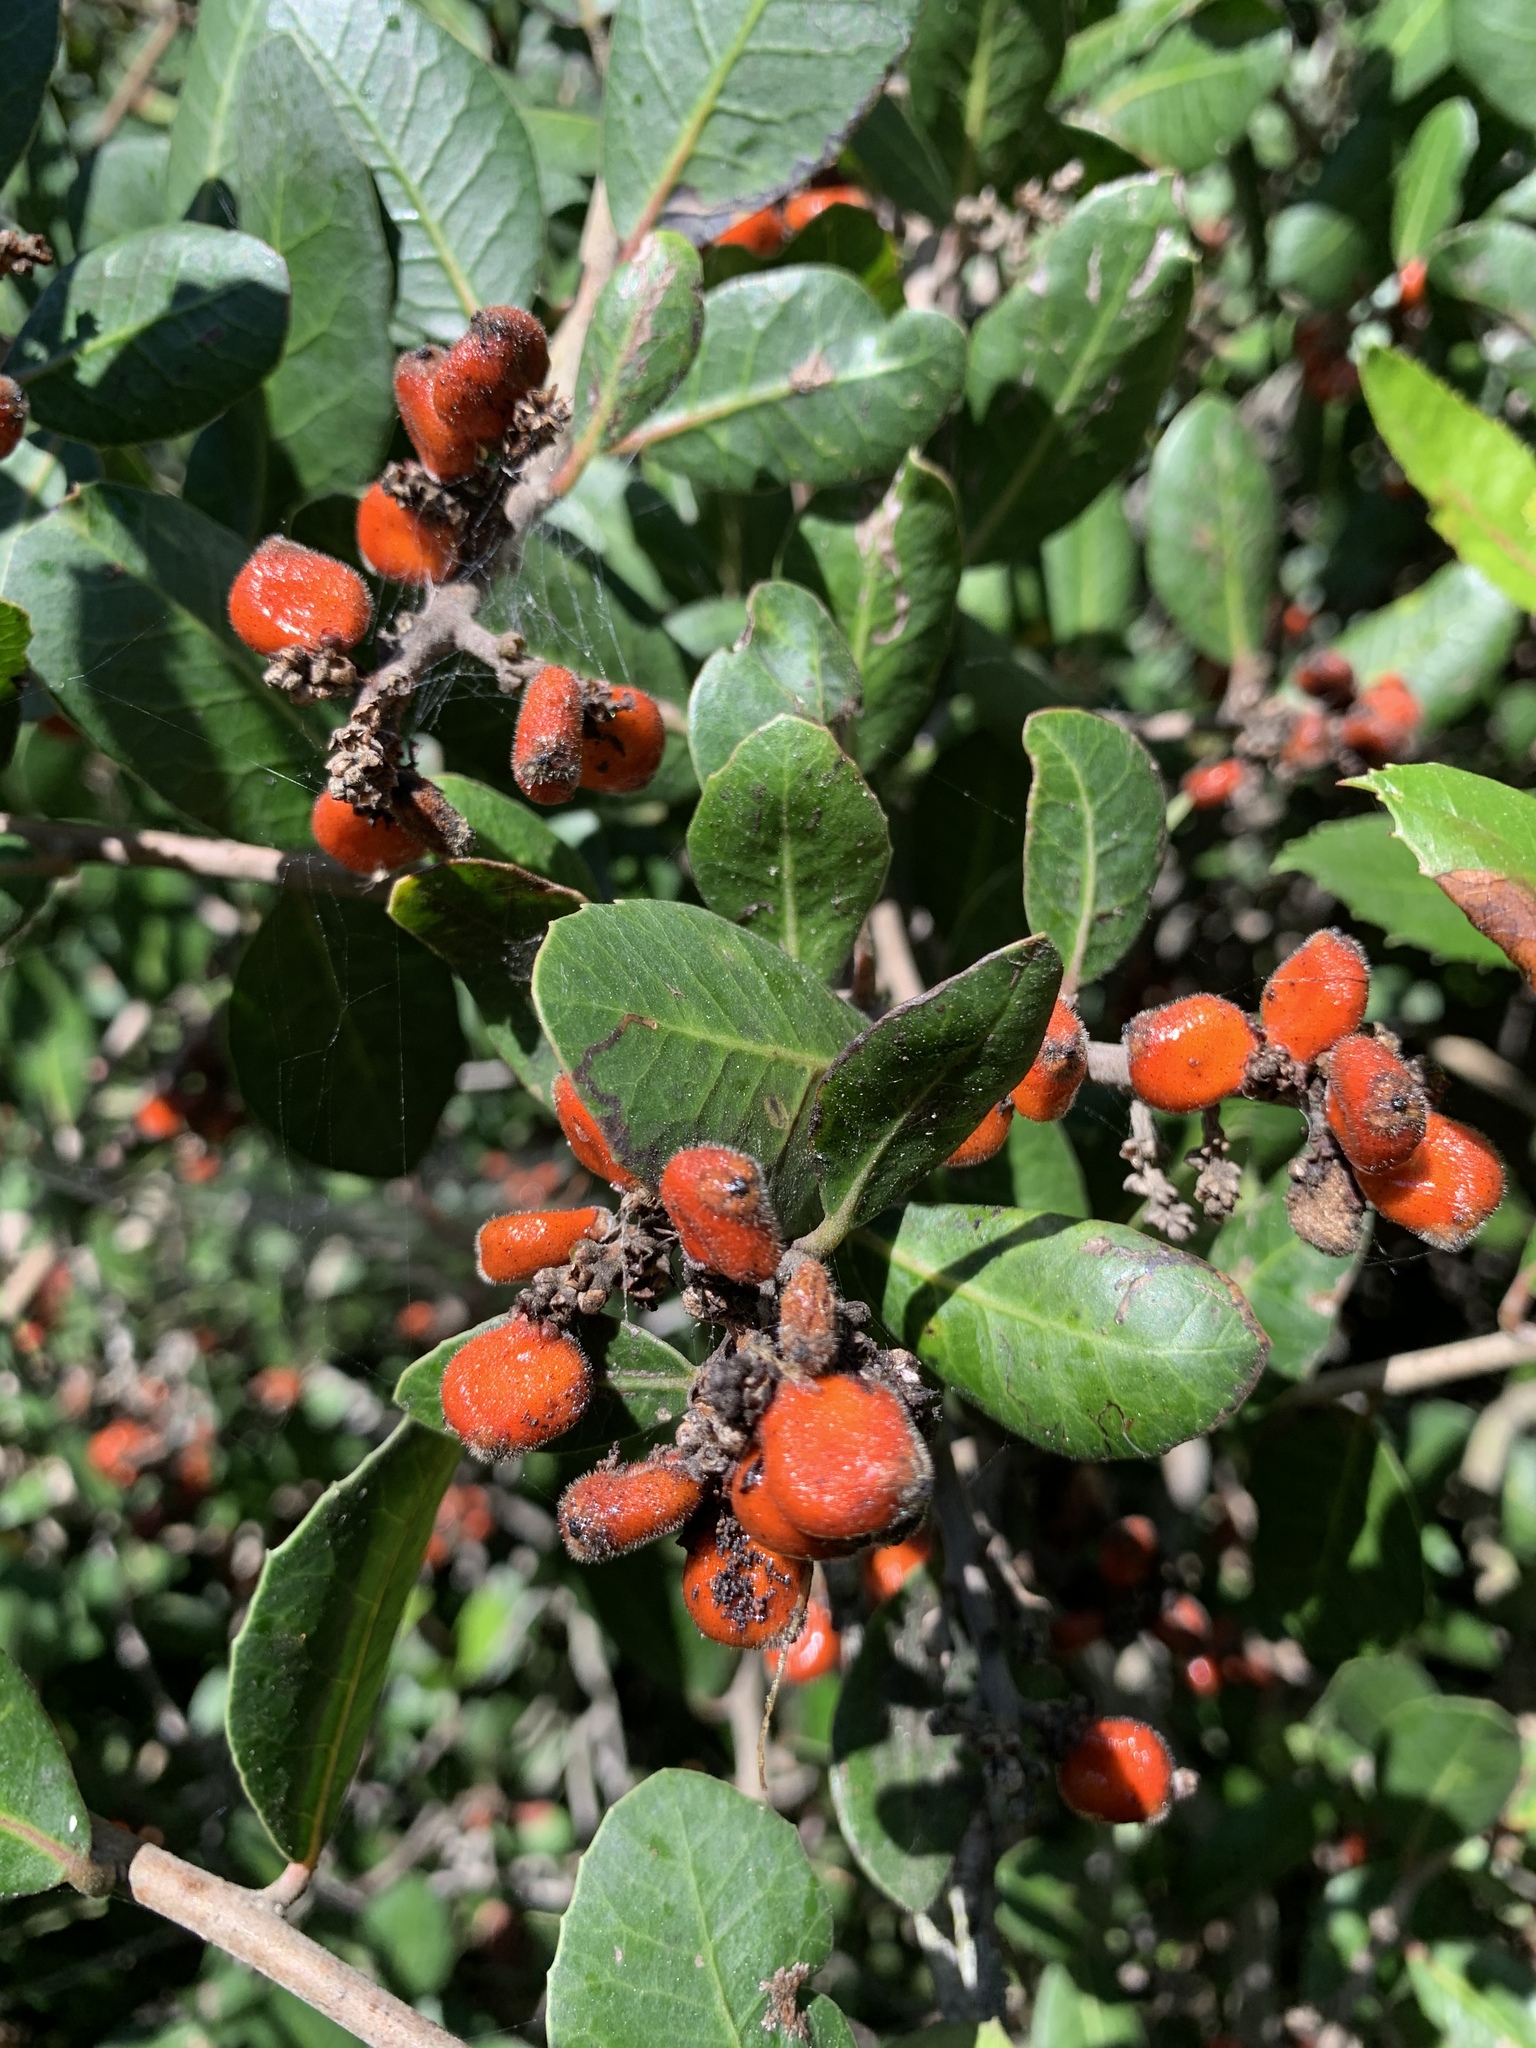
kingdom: Plantae
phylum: Tracheophyta
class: Magnoliopsida
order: Sapindales
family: Anacardiaceae
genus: Rhus
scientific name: Rhus integrifolia
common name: Lemonade sumac
